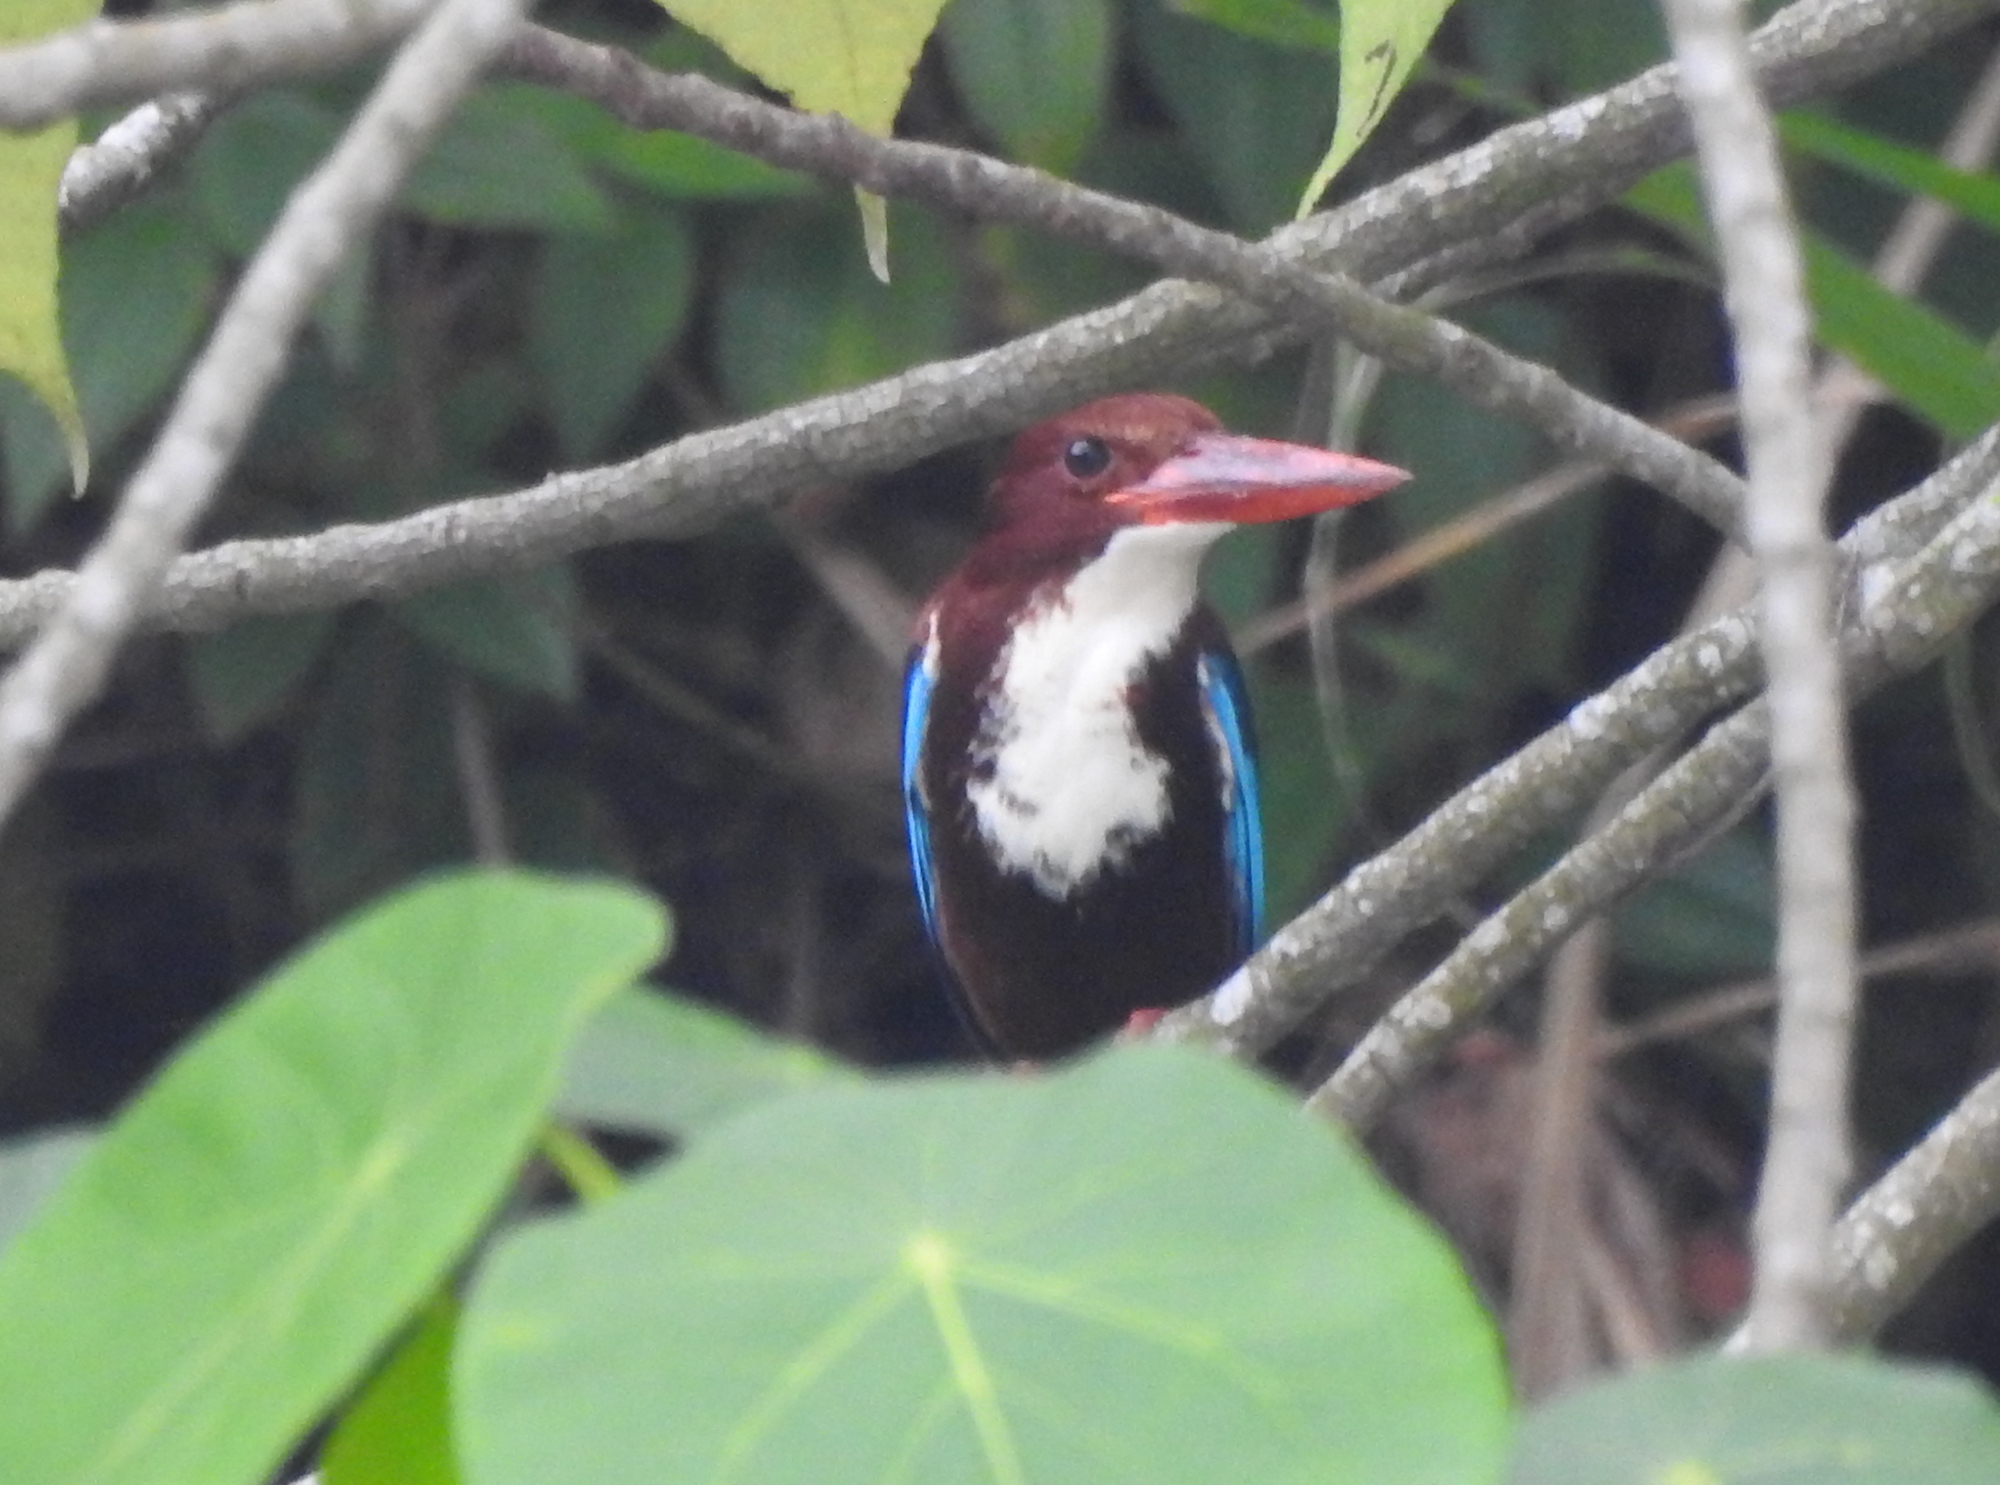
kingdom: Animalia
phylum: Chordata
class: Aves
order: Coraciiformes
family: Alcedinidae
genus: Halcyon
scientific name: Halcyon smyrnensis
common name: White-throated kingfisher
